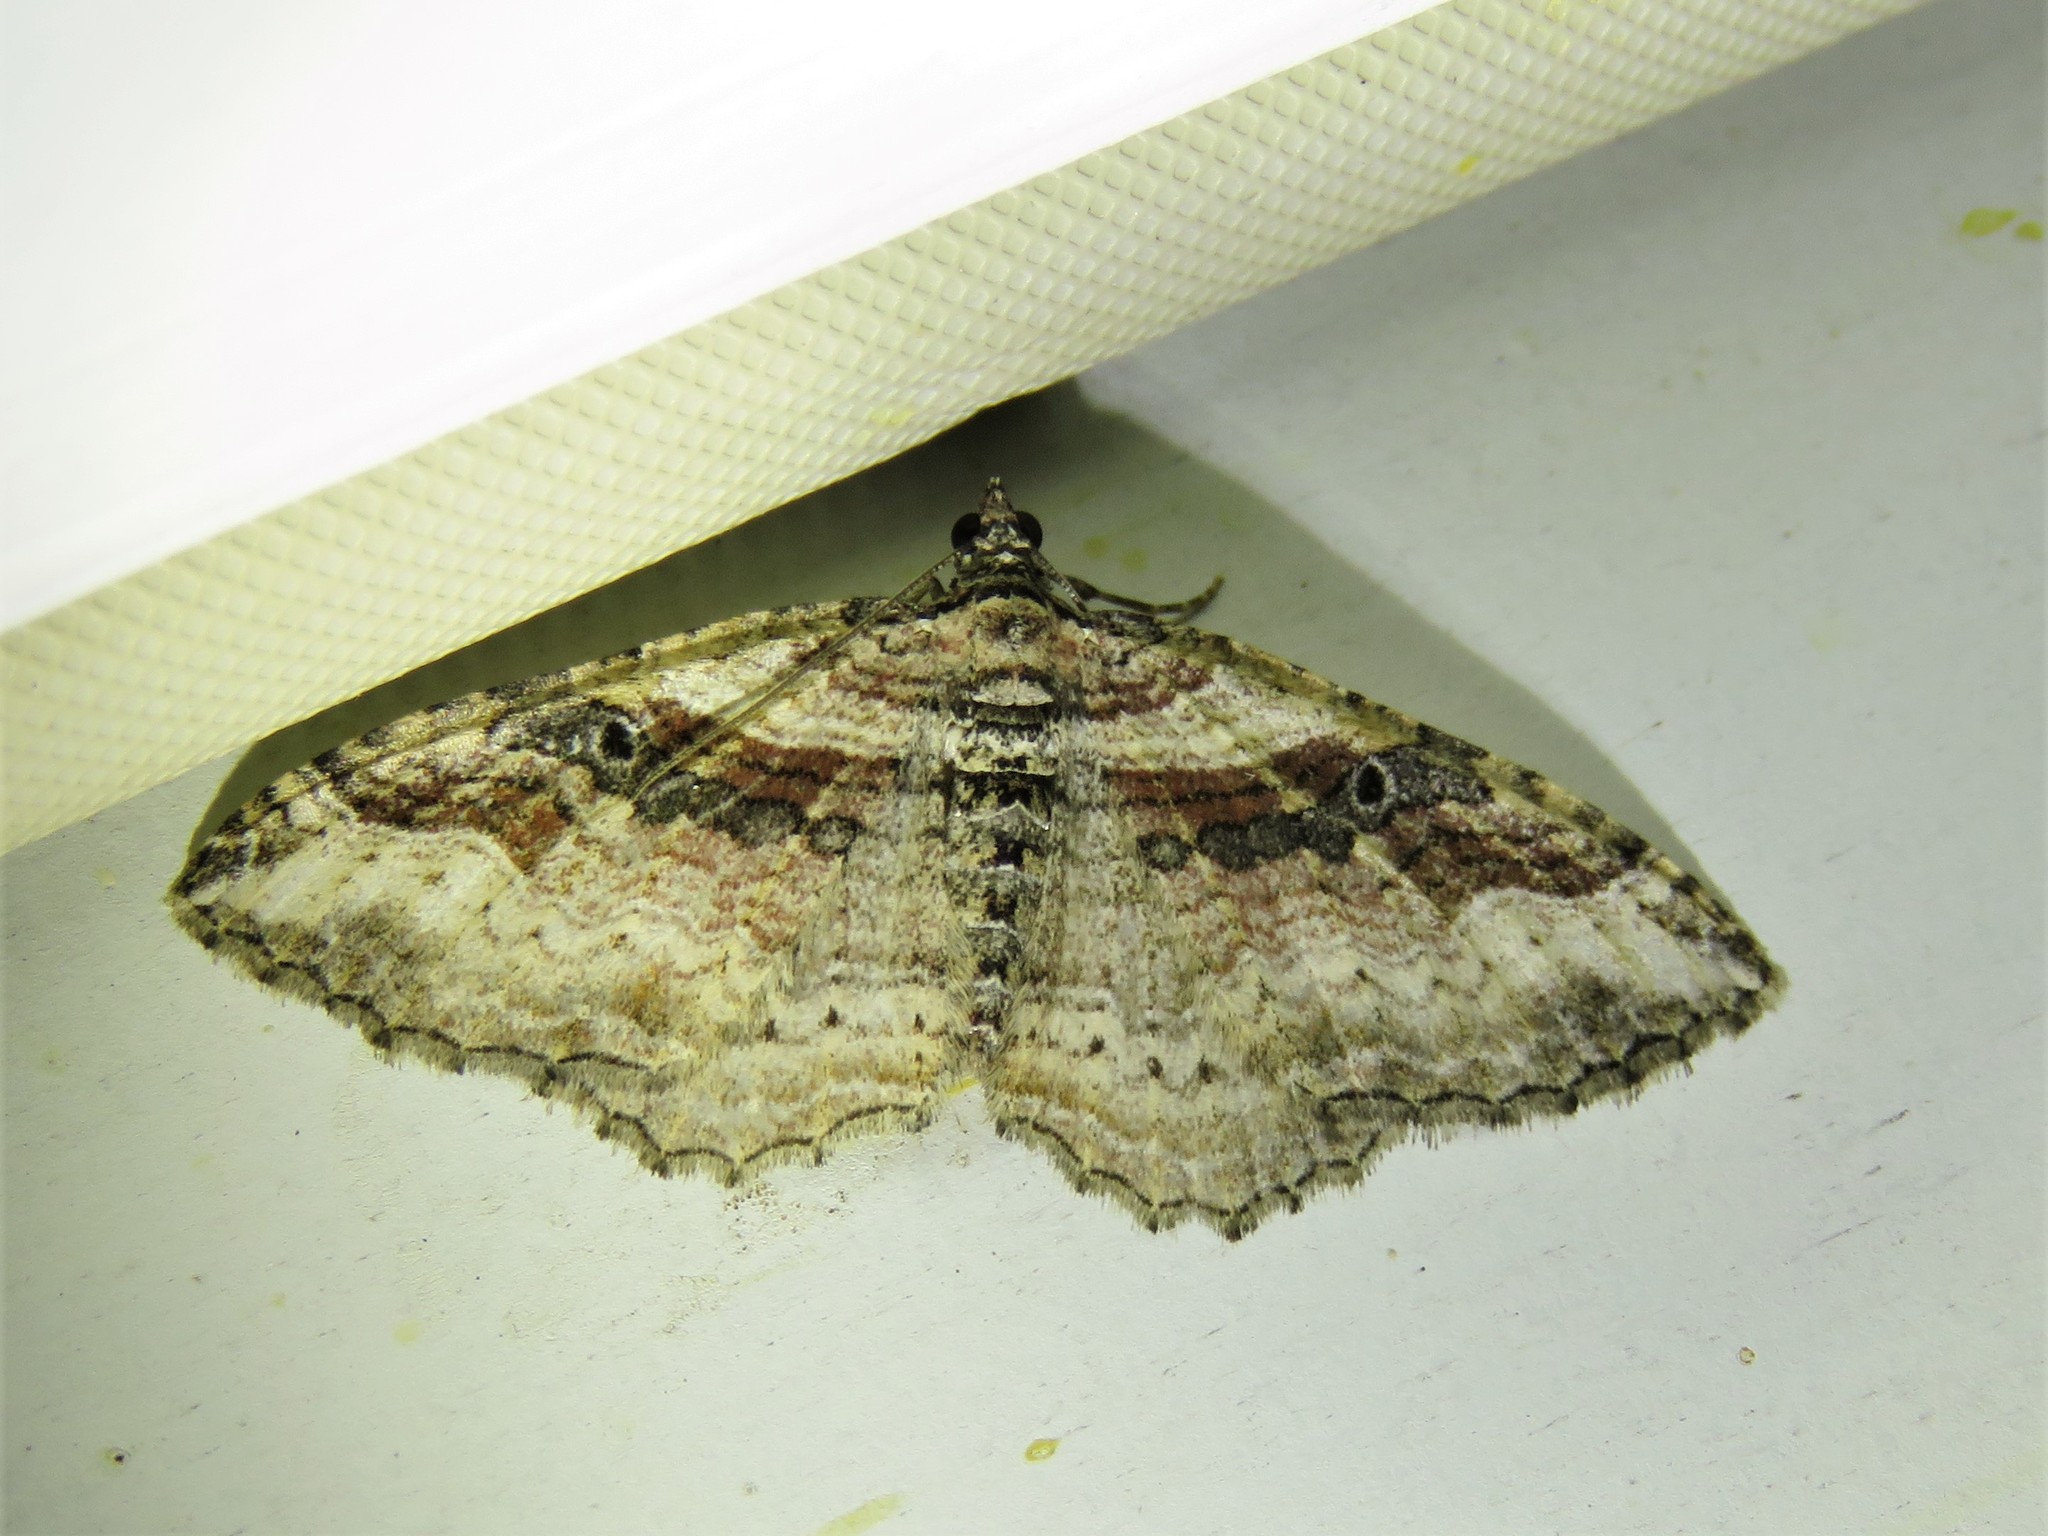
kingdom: Animalia
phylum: Arthropoda
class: Insecta
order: Lepidoptera
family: Geometridae
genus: Costaconvexa
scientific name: Costaconvexa centrostrigaria
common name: Bent-line carpet
